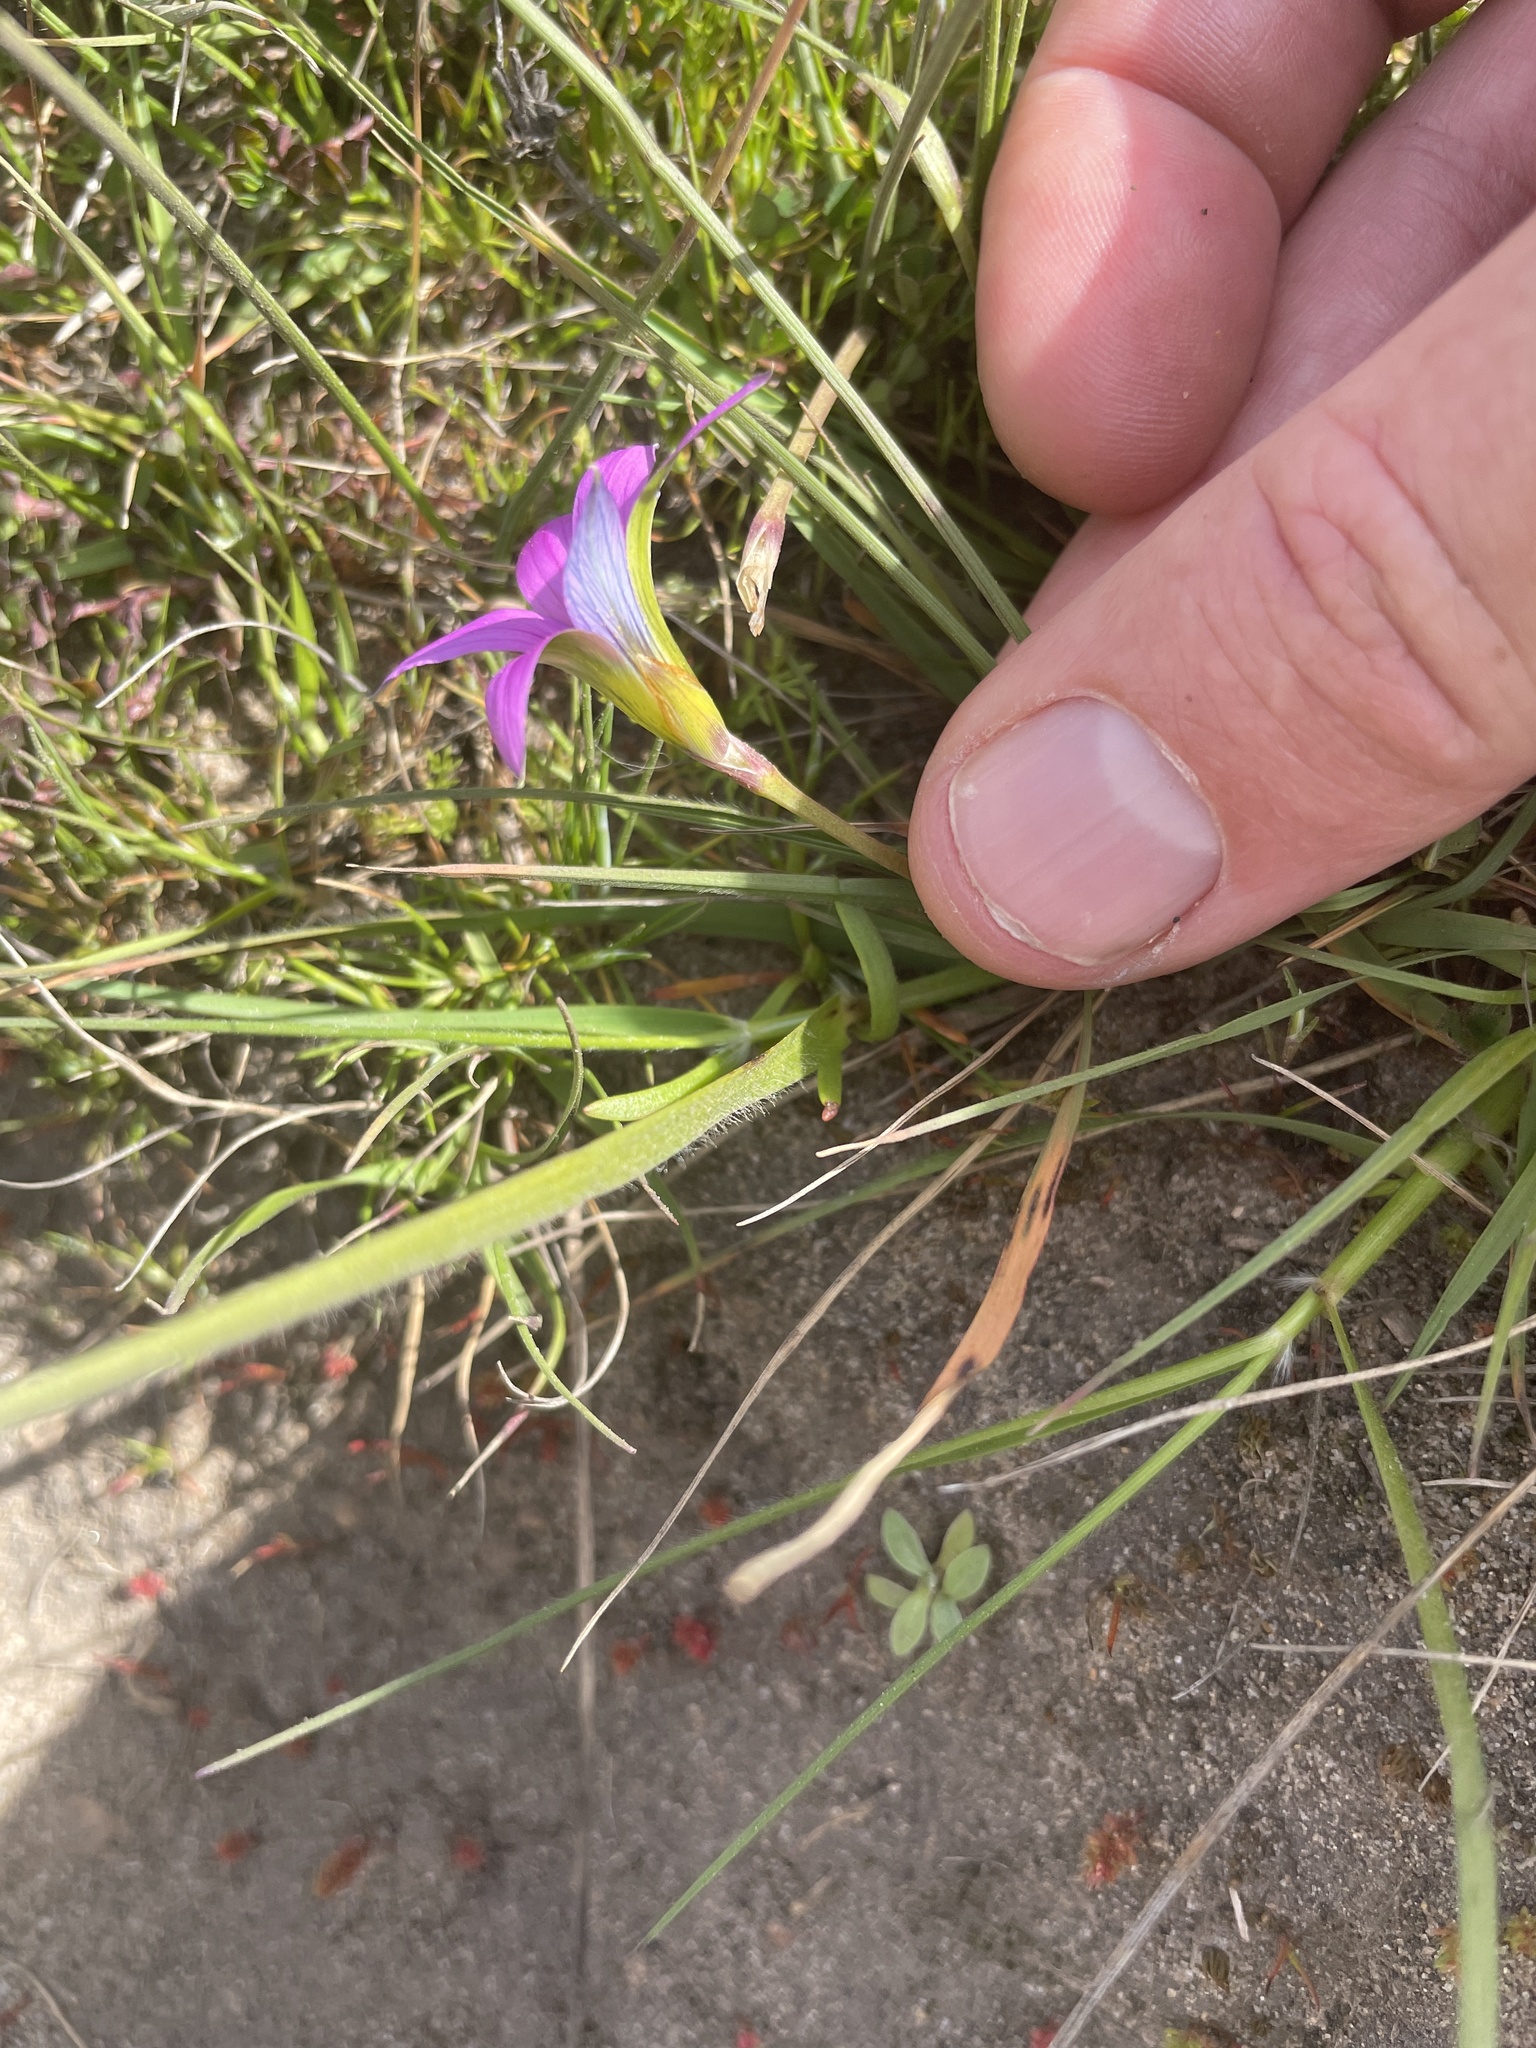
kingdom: Plantae
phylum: Tracheophyta
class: Liliopsida
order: Asparagales
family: Iridaceae
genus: Romulea
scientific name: Romulea rosea
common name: Oniongrass
